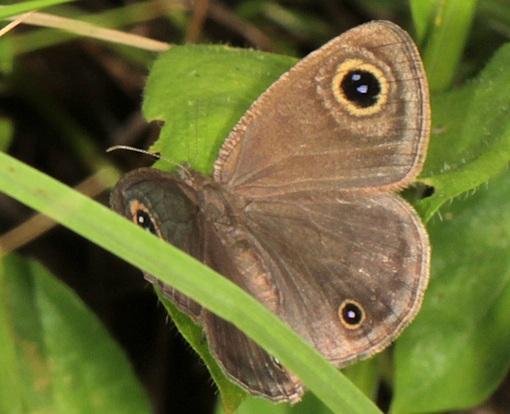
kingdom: Animalia
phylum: Arthropoda
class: Insecta
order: Lepidoptera
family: Nymphalidae
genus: Ypthima
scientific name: Ypthima impura
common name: Bushland ringlet
